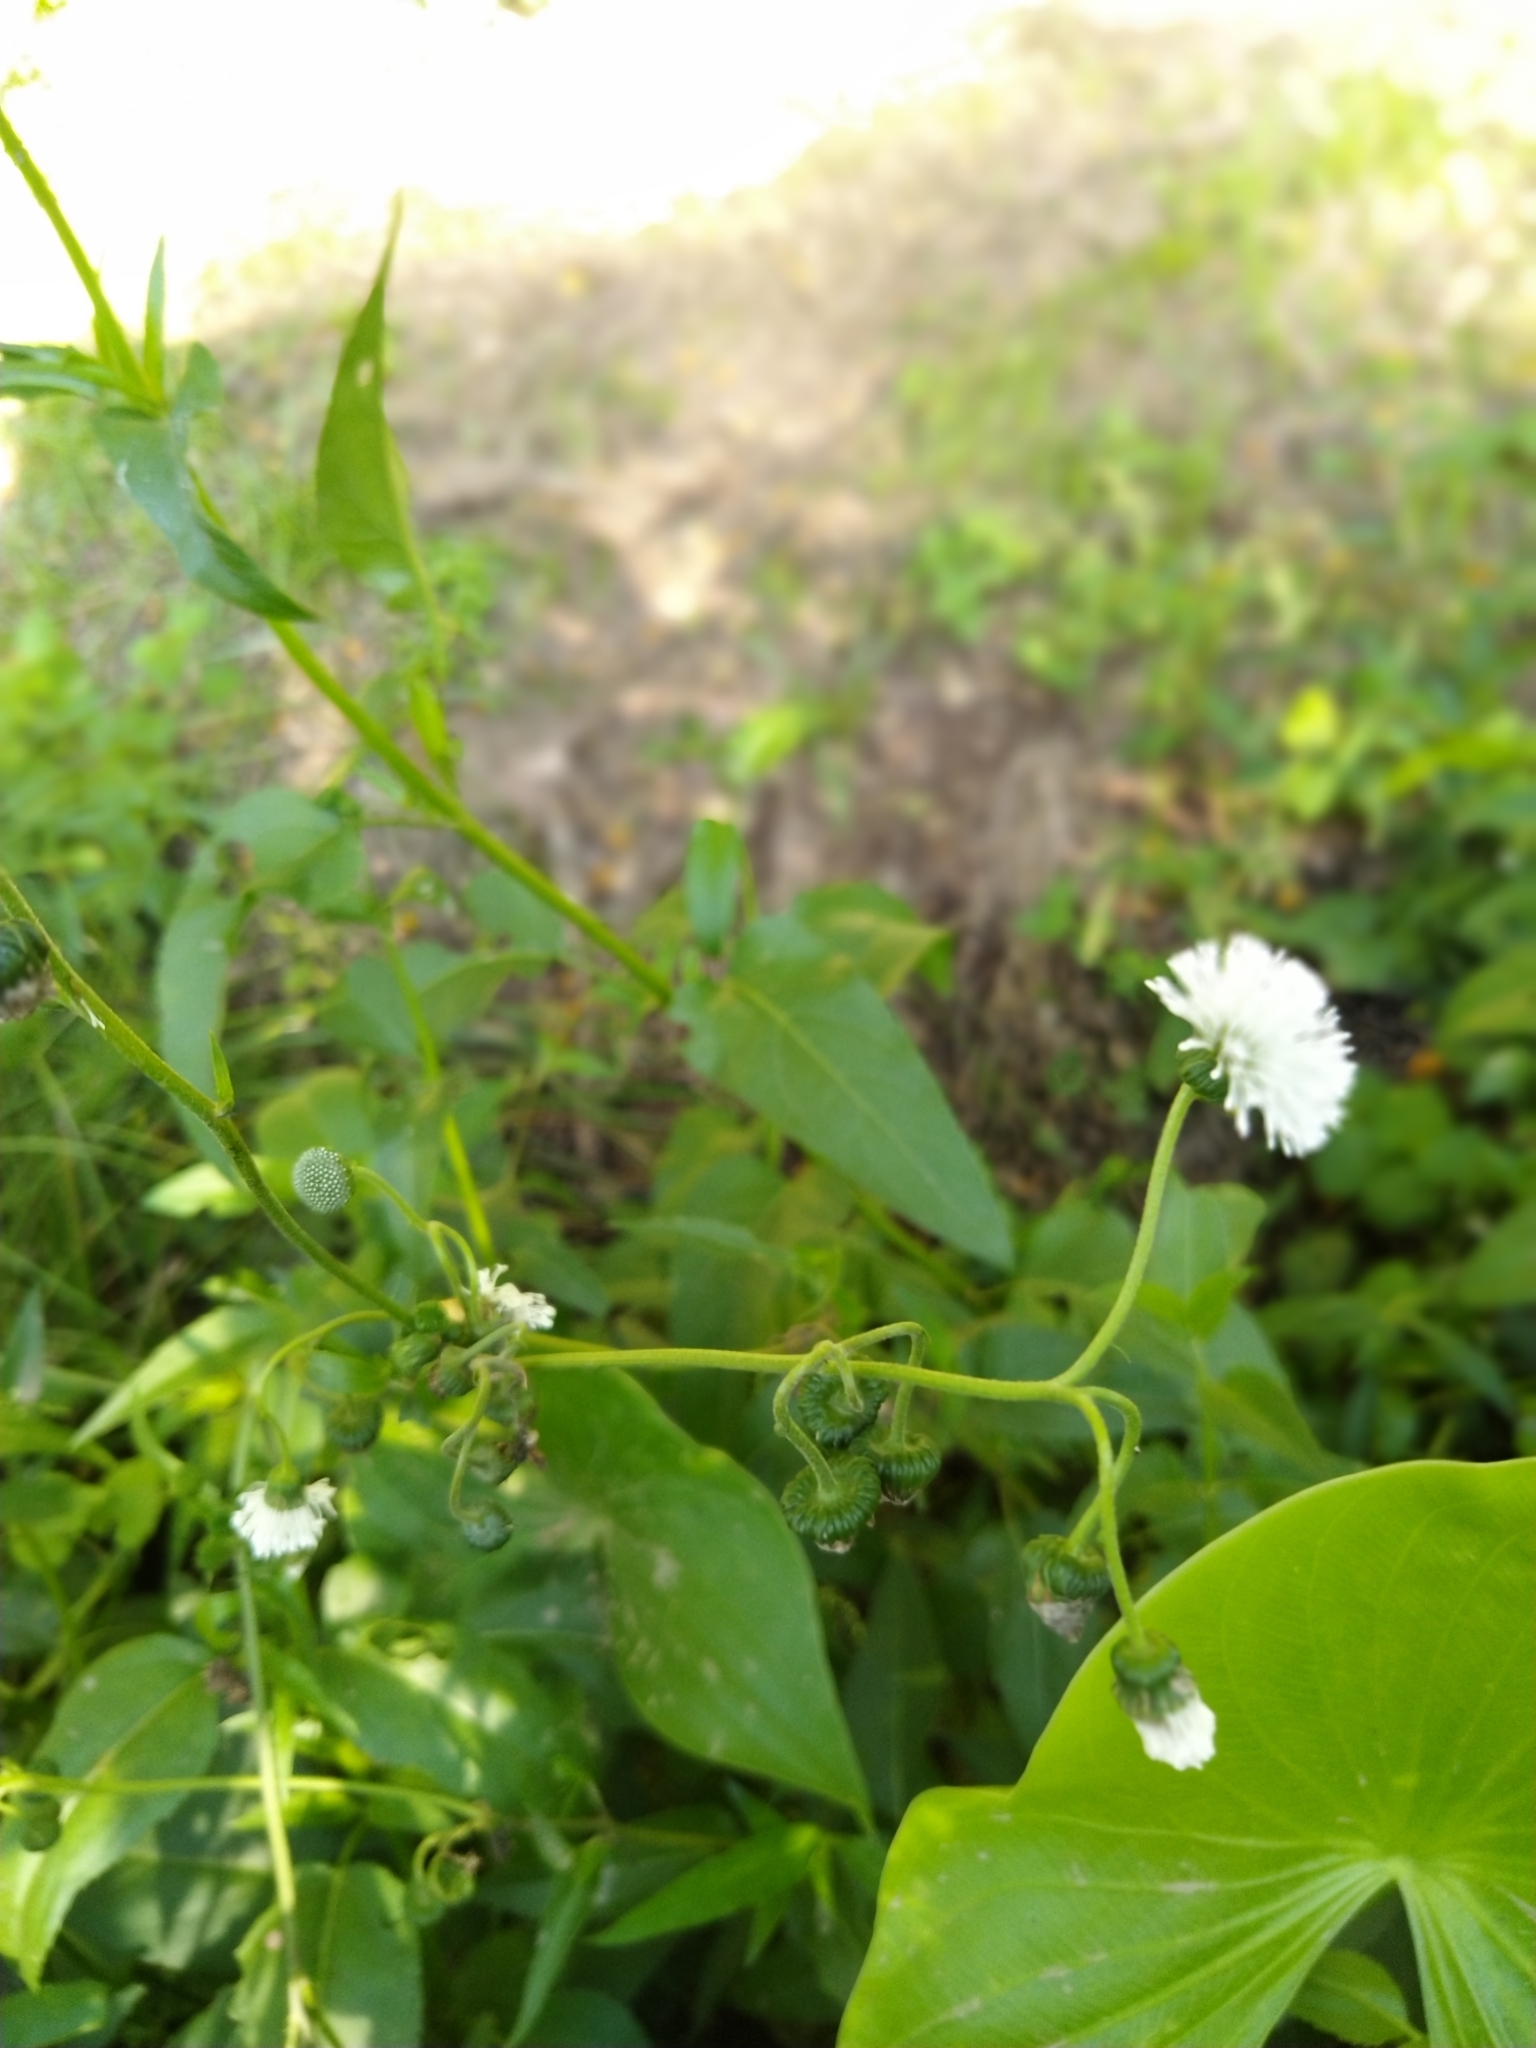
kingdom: Plantae
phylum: Tracheophyta
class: Magnoliopsida
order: Asterales
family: Asteraceae
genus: Gymnocoronis
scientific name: Gymnocoronis spilanthoides
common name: Senegal teaplant
